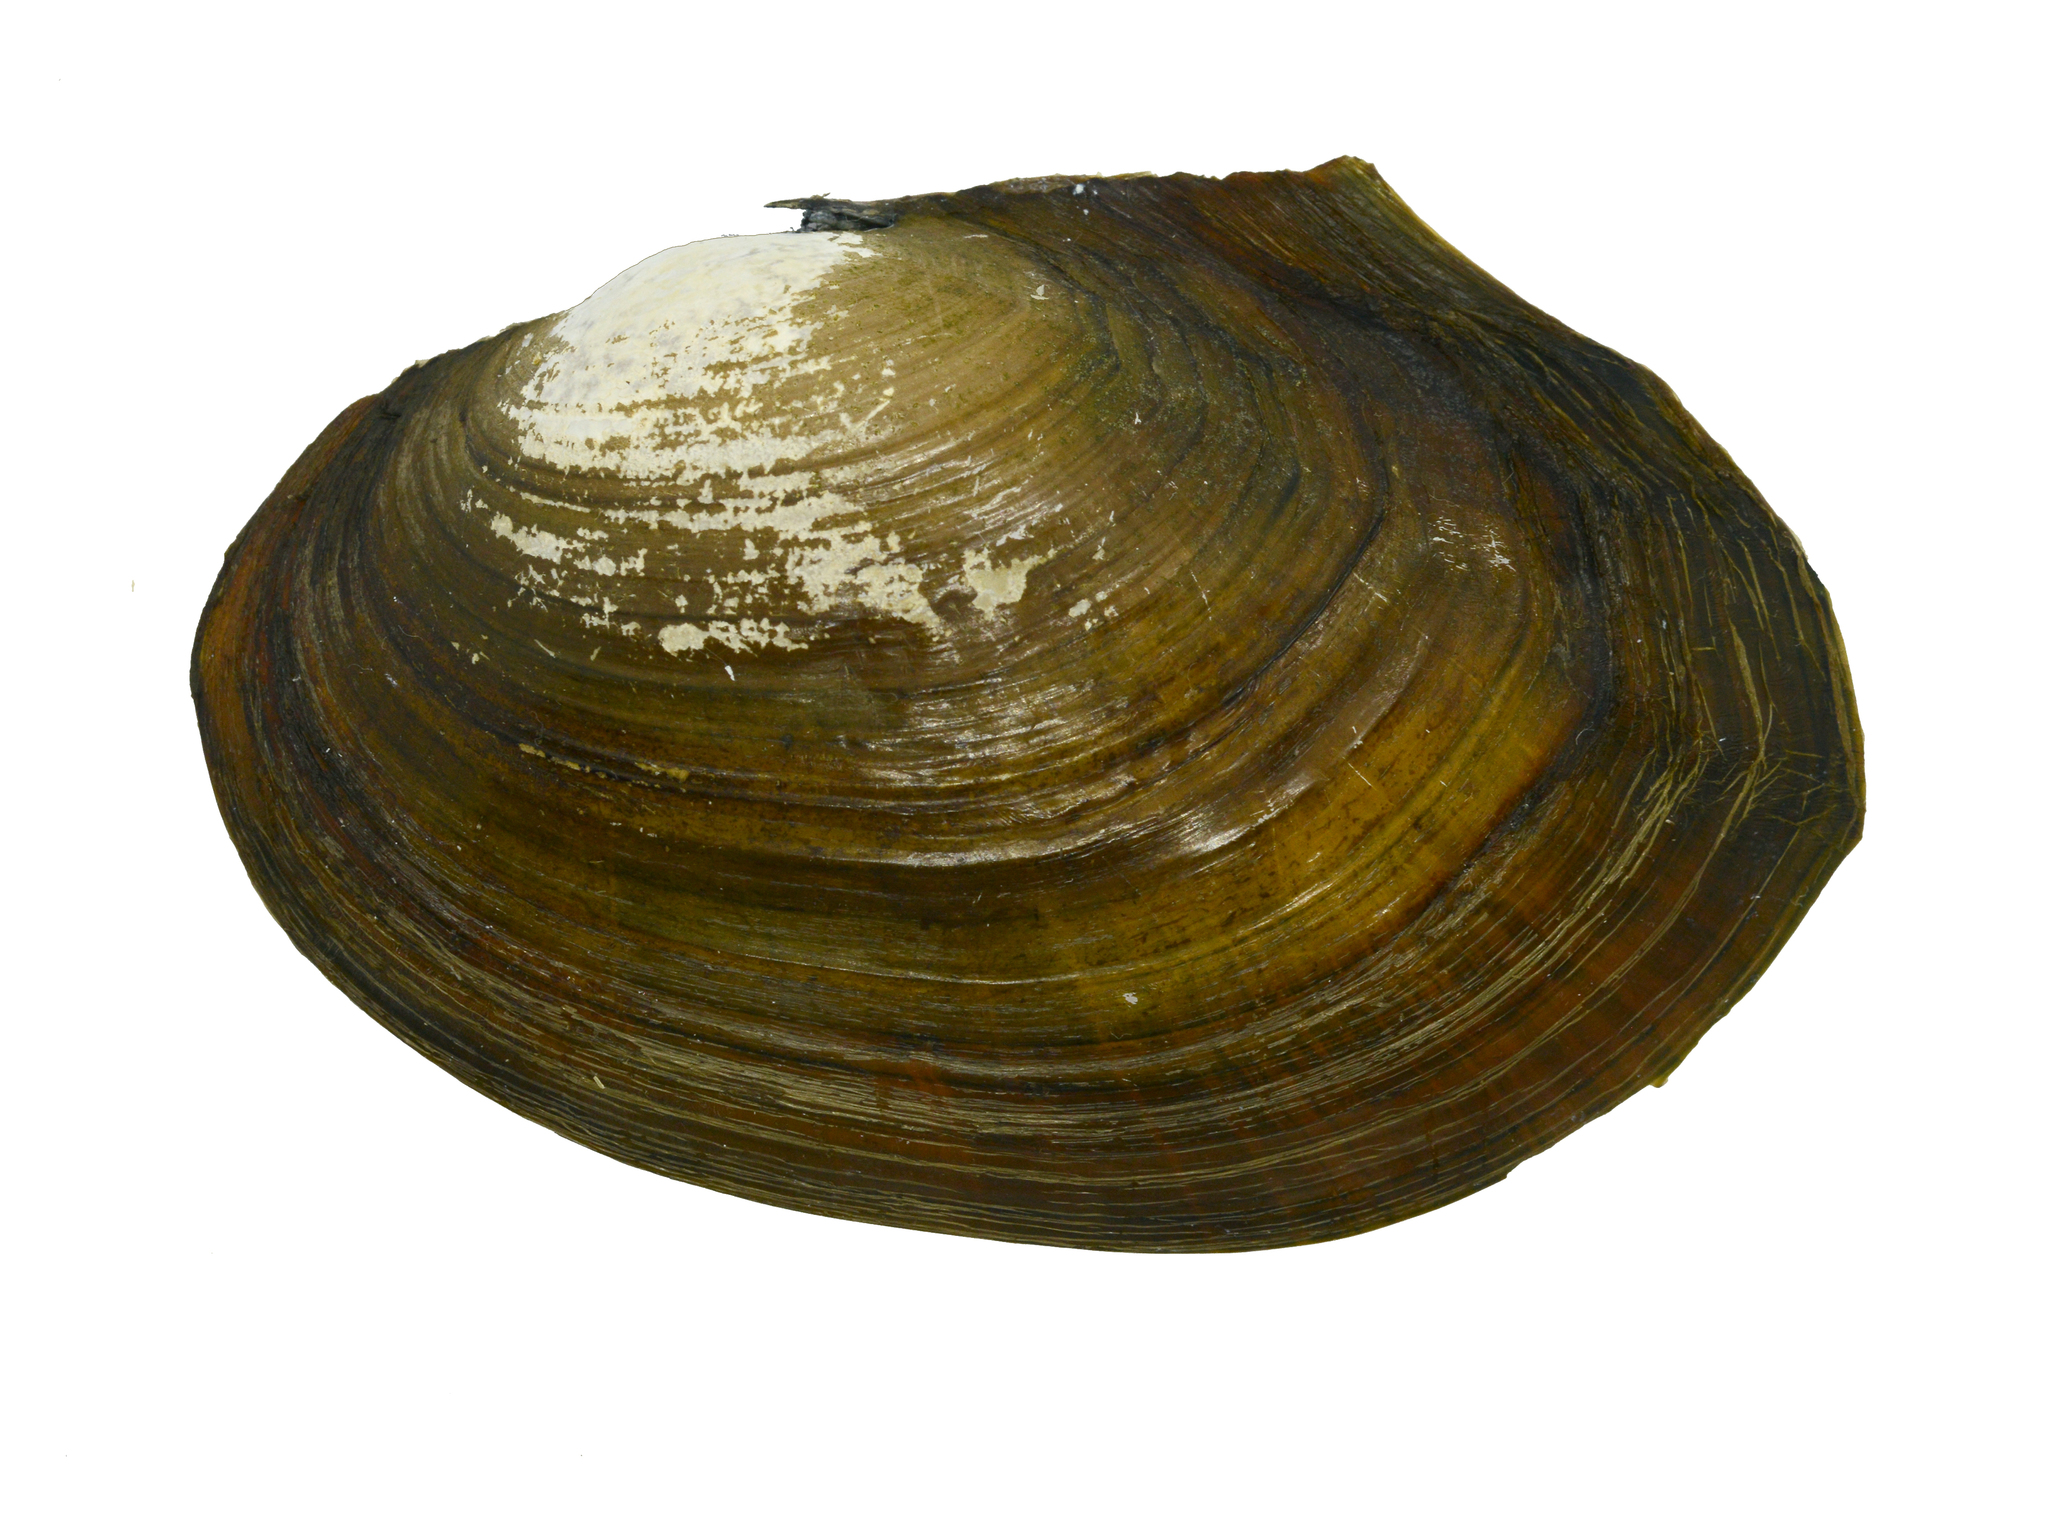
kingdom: Animalia
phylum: Mollusca
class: Bivalvia
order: Unionida
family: Unionidae
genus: Sinanodonta
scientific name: Sinanodonta lauta
